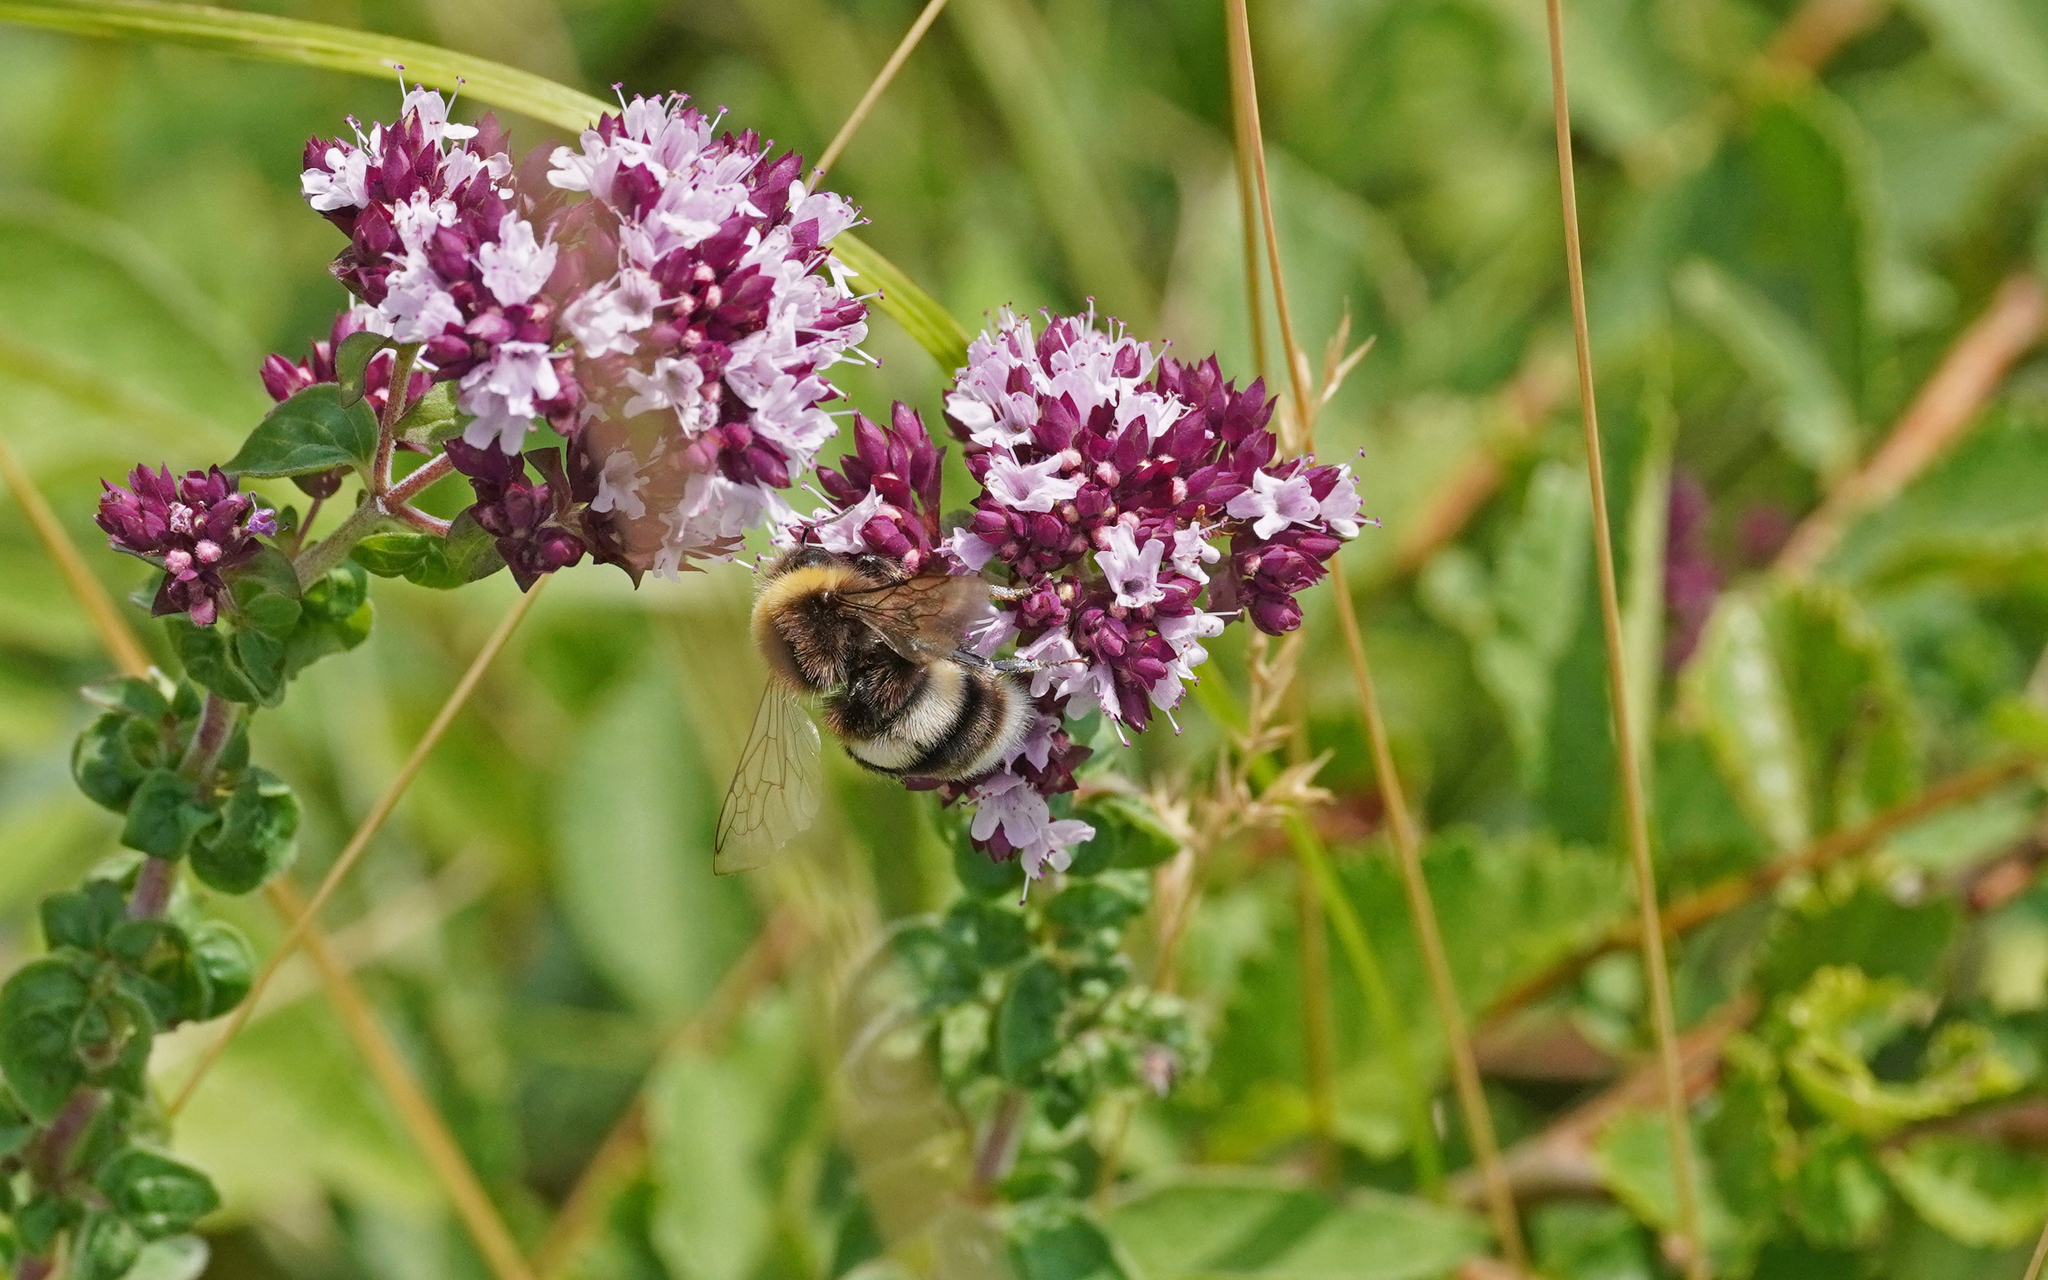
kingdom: Animalia
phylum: Arthropoda
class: Insecta
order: Hymenoptera
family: Apidae
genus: Bombus
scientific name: Bombus lucorum
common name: White-tailed bumblebee
